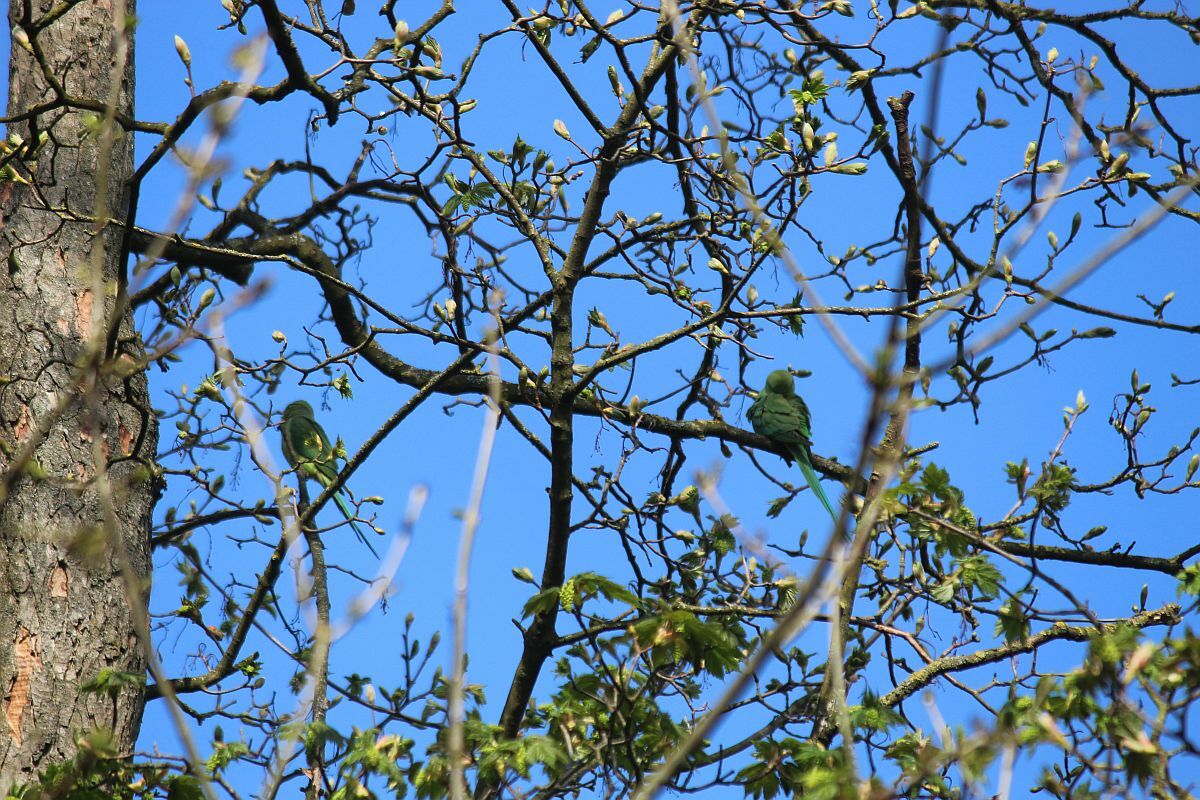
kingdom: Animalia
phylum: Chordata
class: Aves
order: Psittaciformes
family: Psittacidae
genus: Psittacula
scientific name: Psittacula krameri
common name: Rose-ringed parakeet
